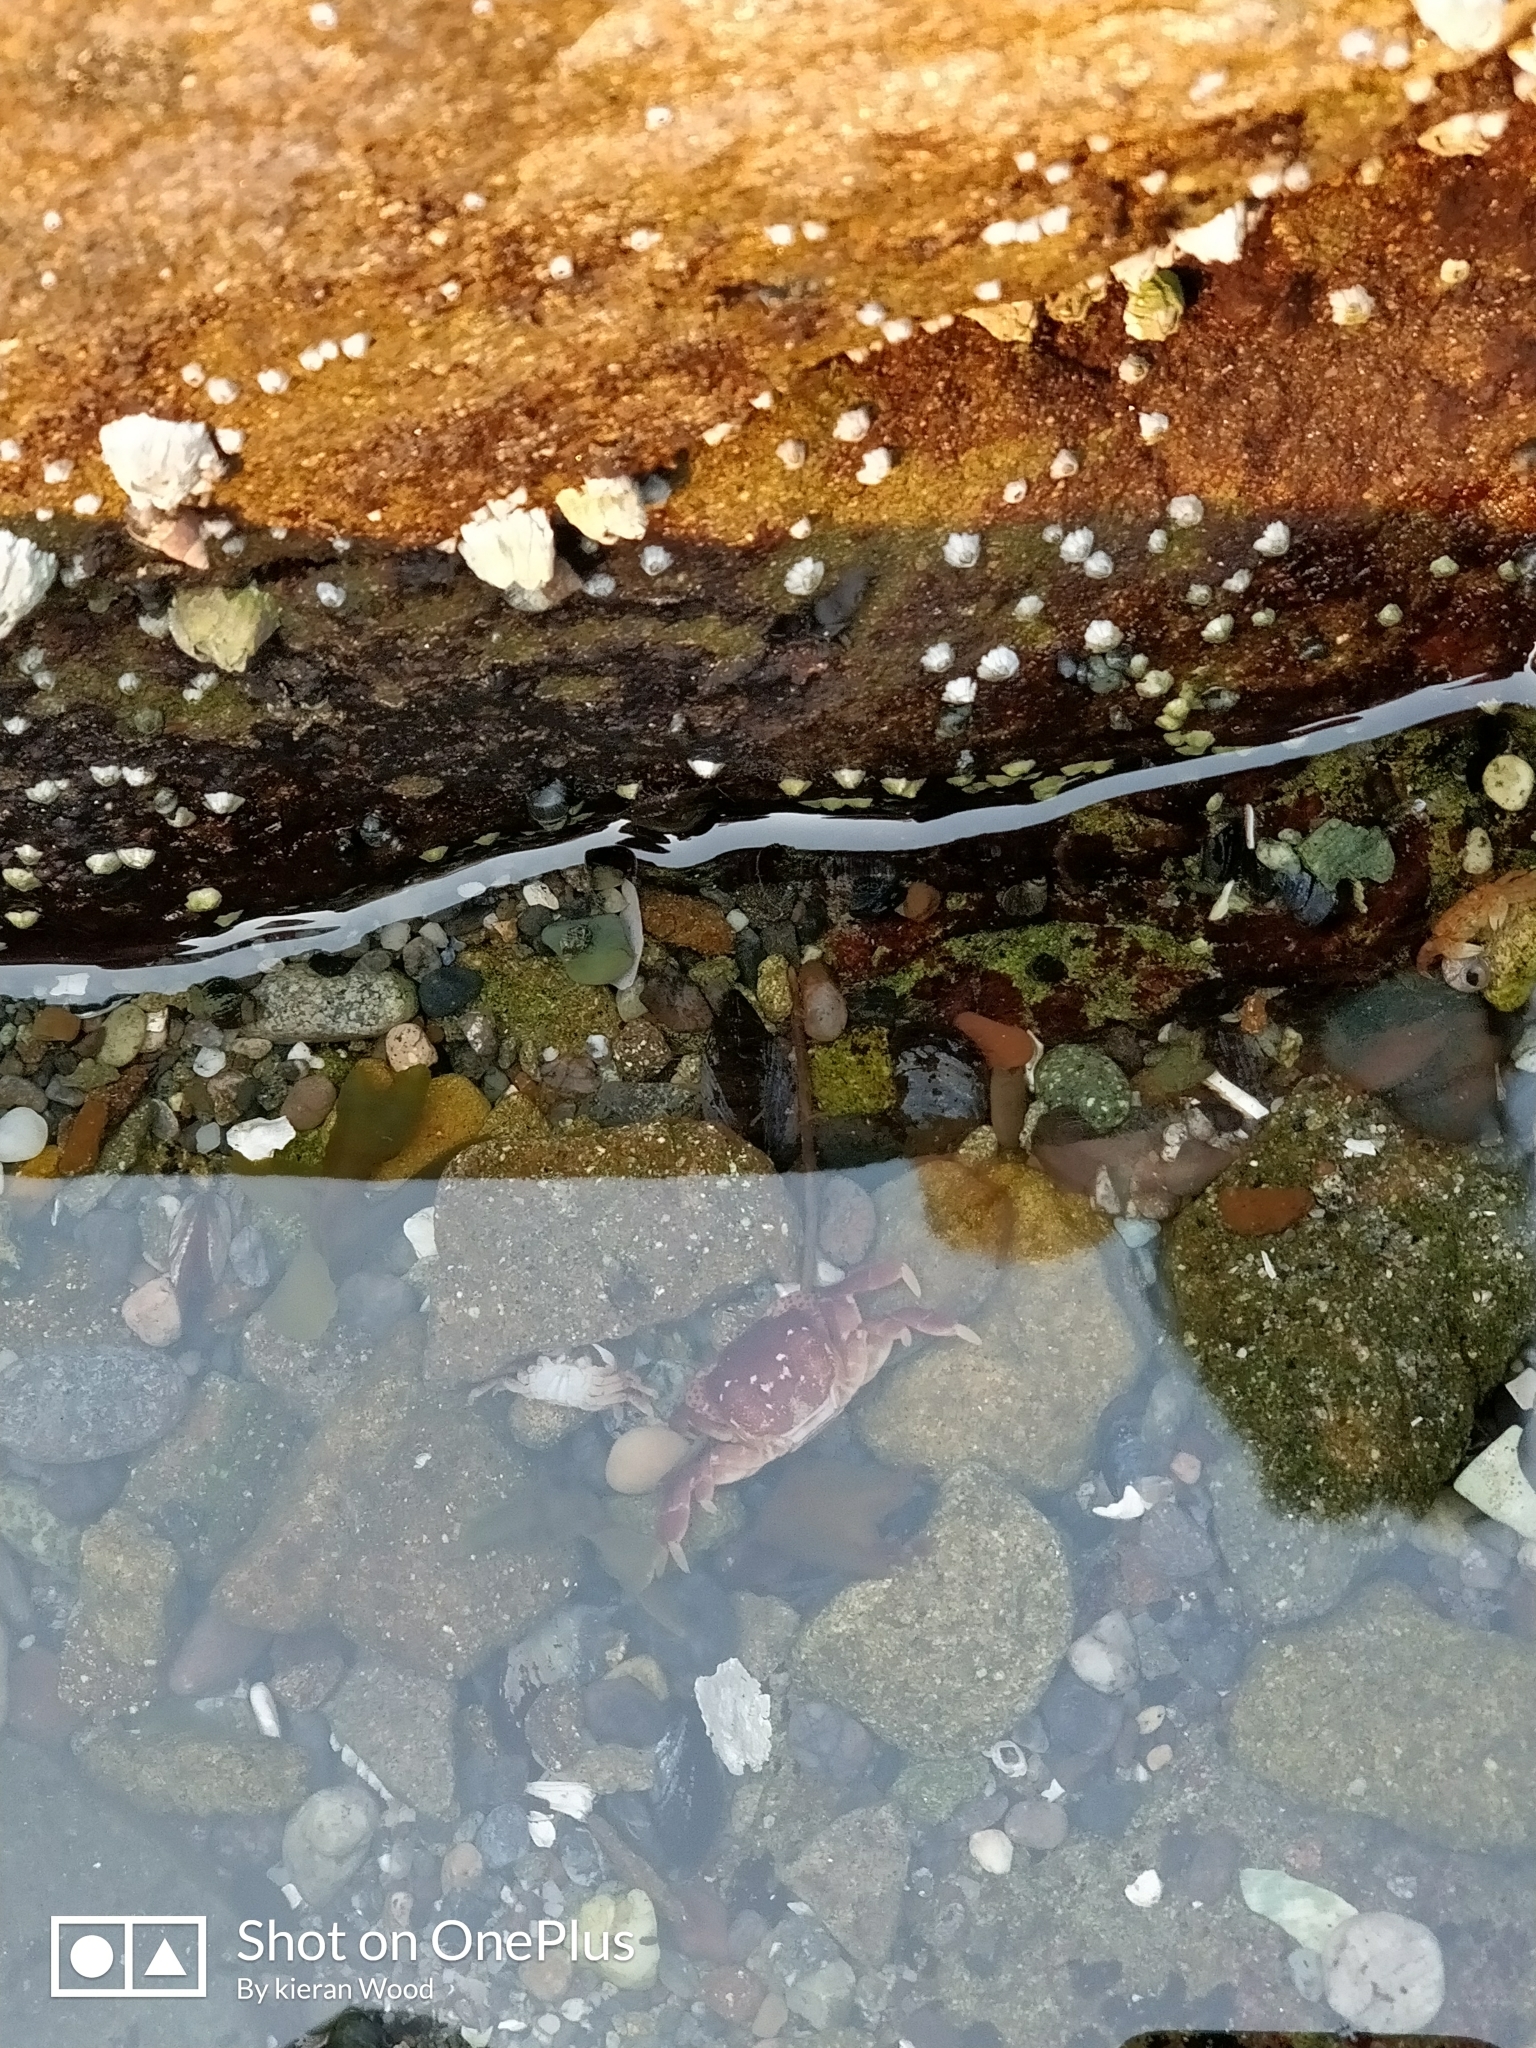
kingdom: Animalia
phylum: Arthropoda
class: Malacostraca
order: Decapoda
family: Varunidae
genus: Hemigrapsus
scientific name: Hemigrapsus nudus
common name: Purple shore crab
